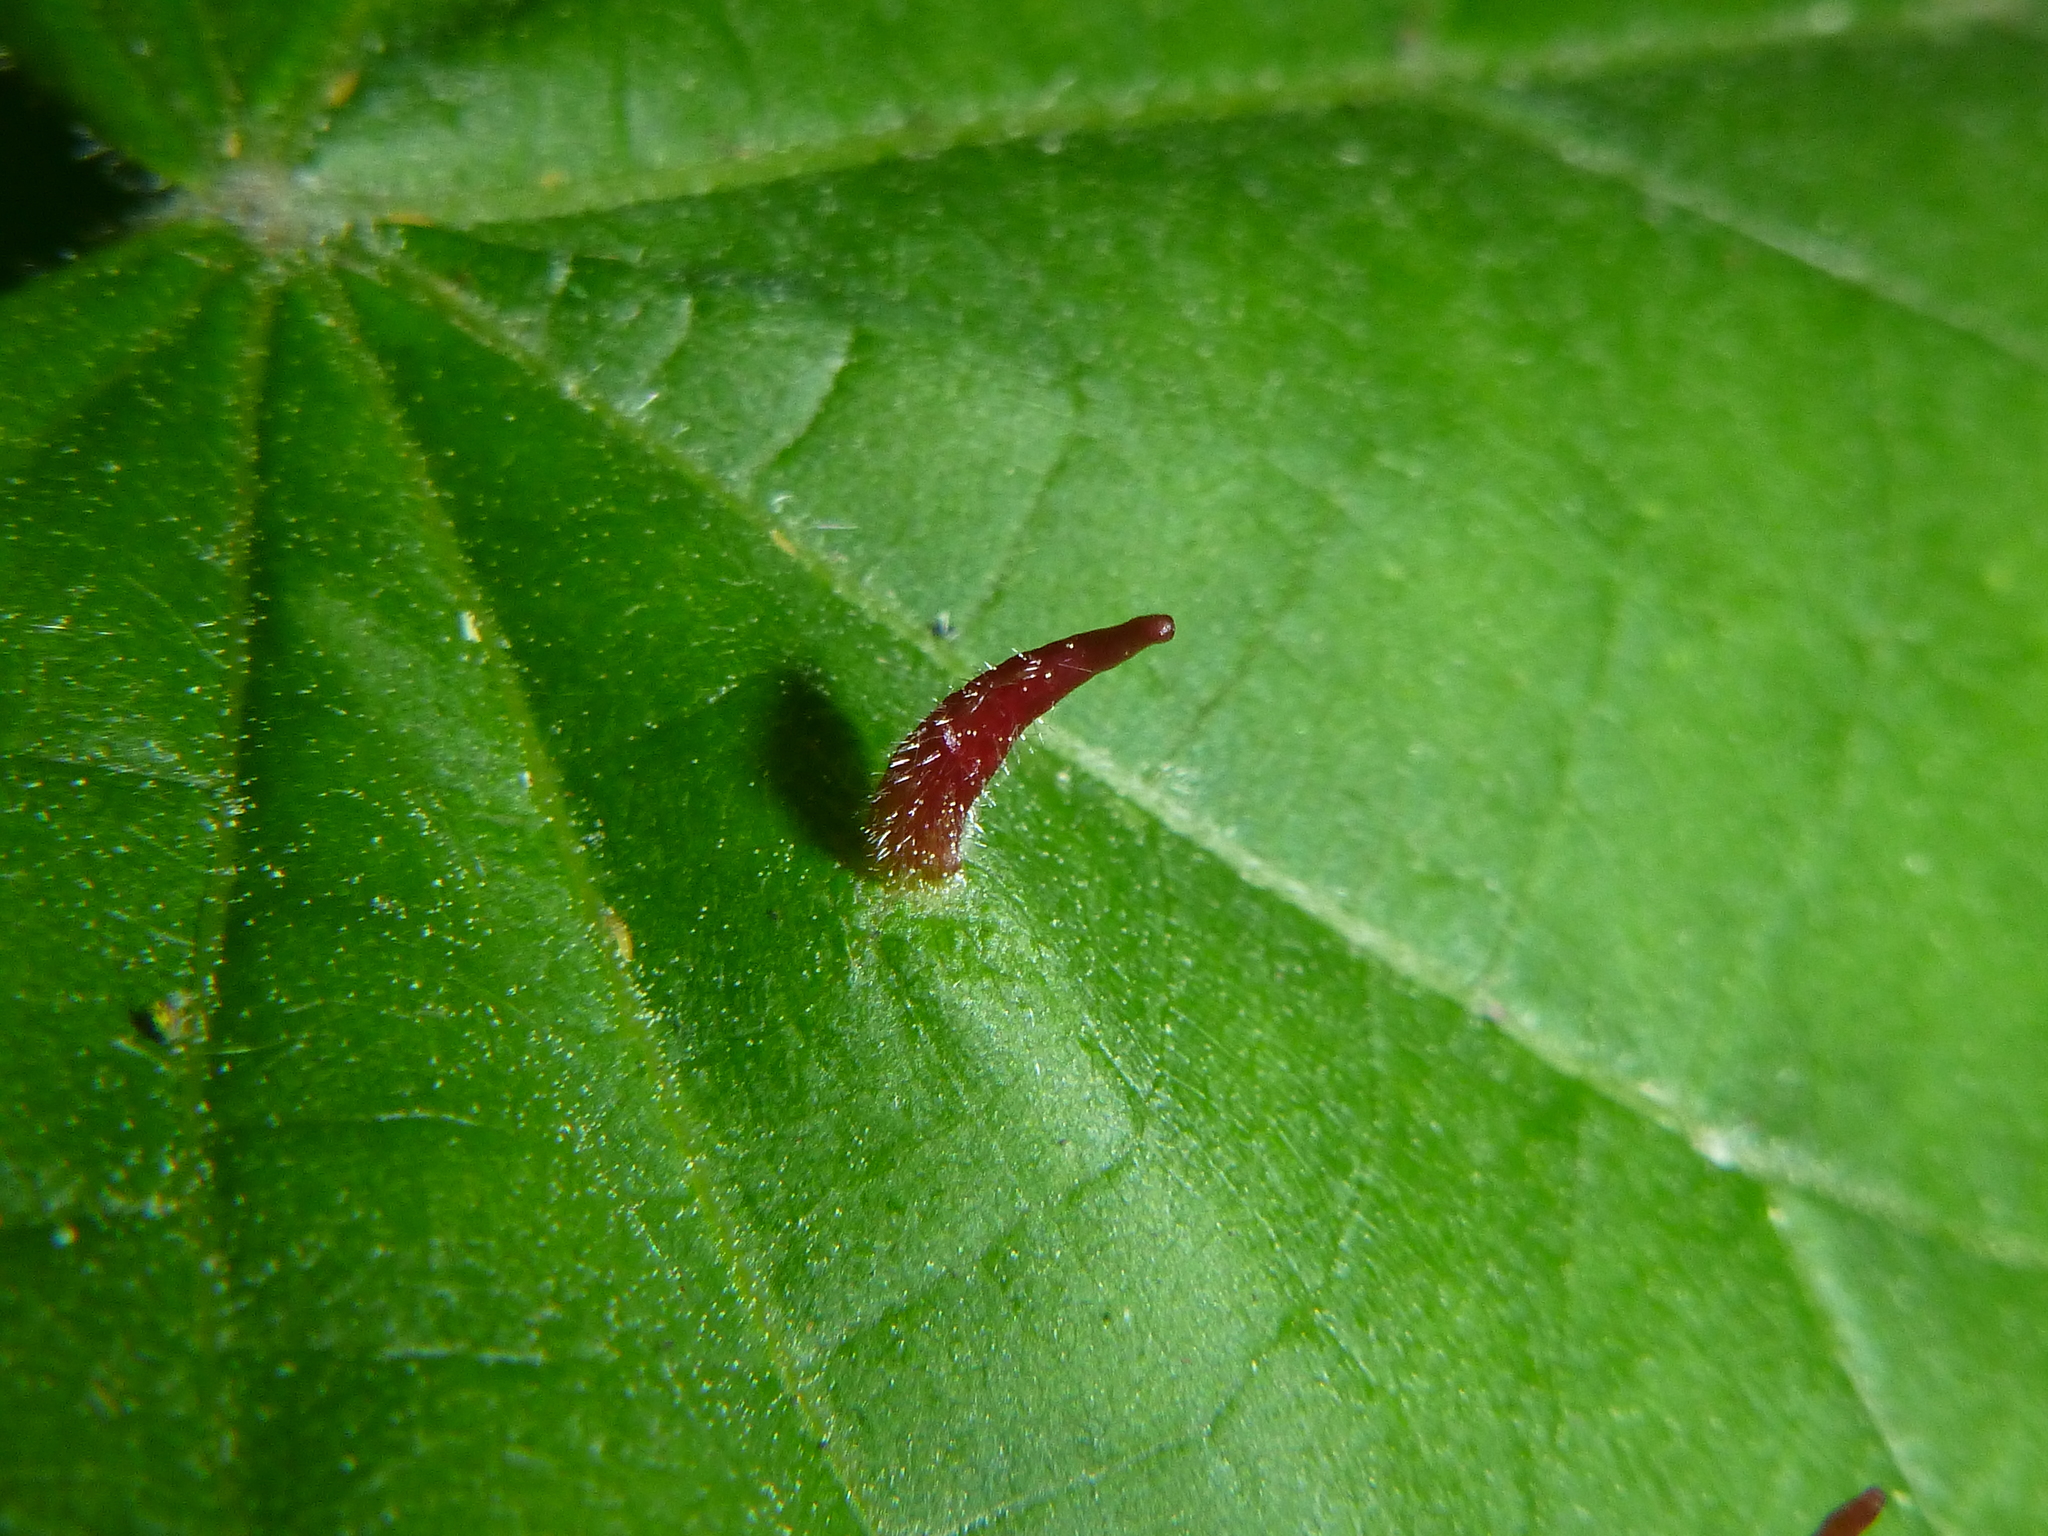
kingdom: Animalia
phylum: Arthropoda
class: Arachnida
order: Trombidiformes
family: Eriophyidae
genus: Eriophyes
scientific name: Eriophyes tiliae
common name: Red nail gall mite
